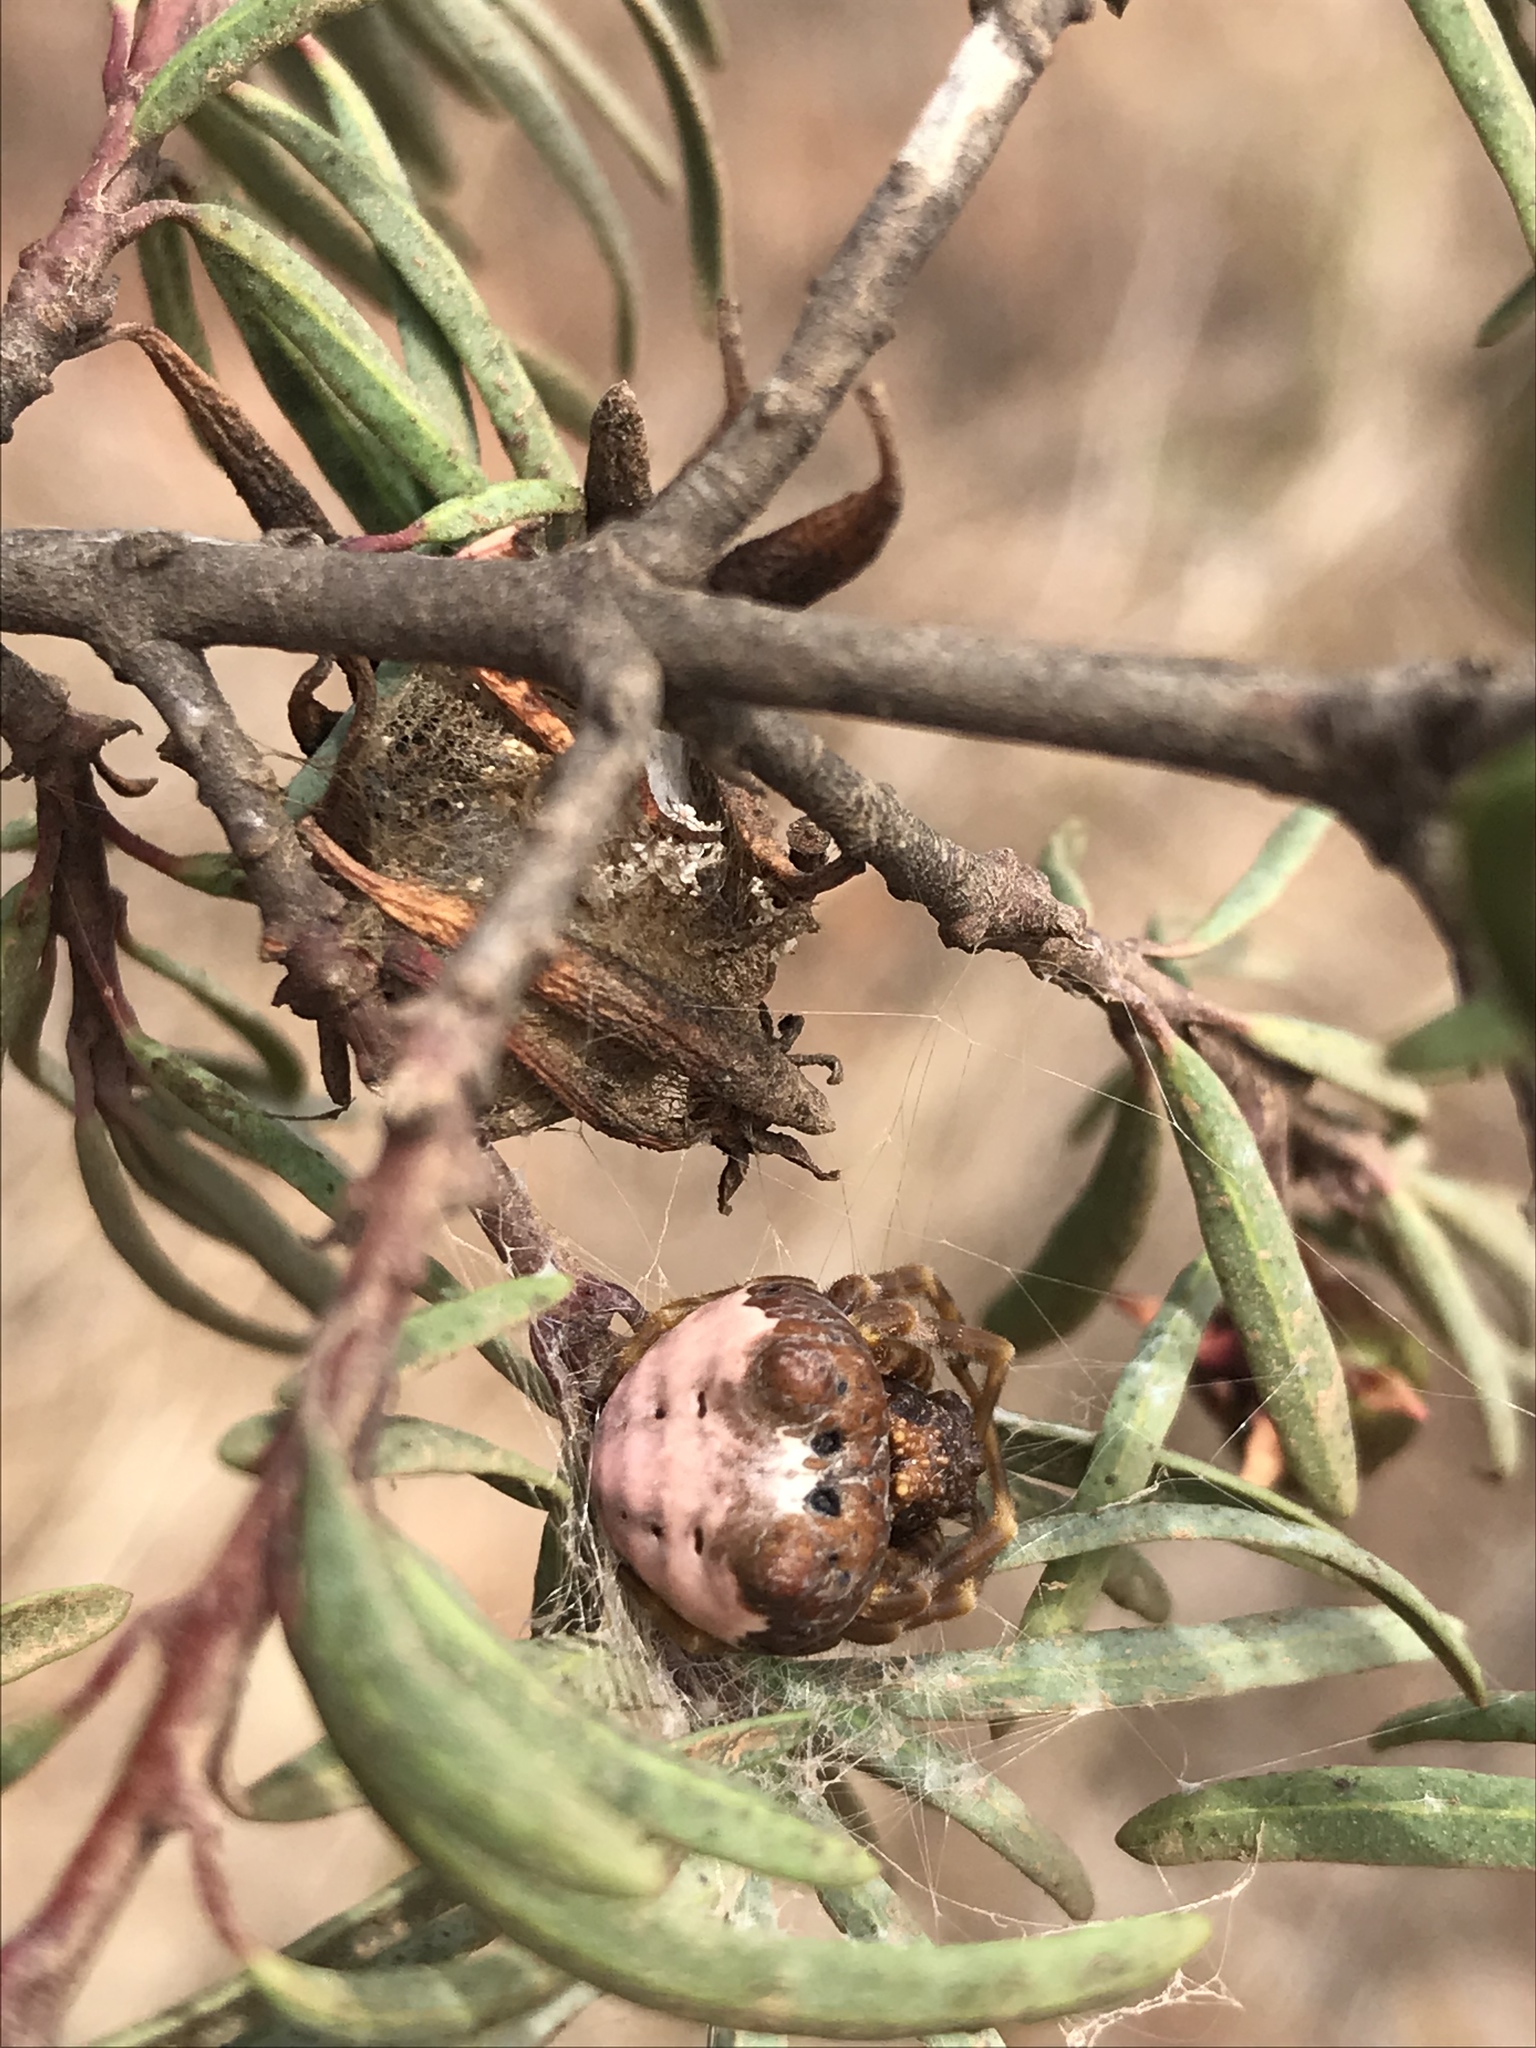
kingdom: Animalia
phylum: Arthropoda
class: Arachnida
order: Araneae
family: Araneidae
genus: Mastophora
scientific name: Mastophora cornigera
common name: Orb weavers
